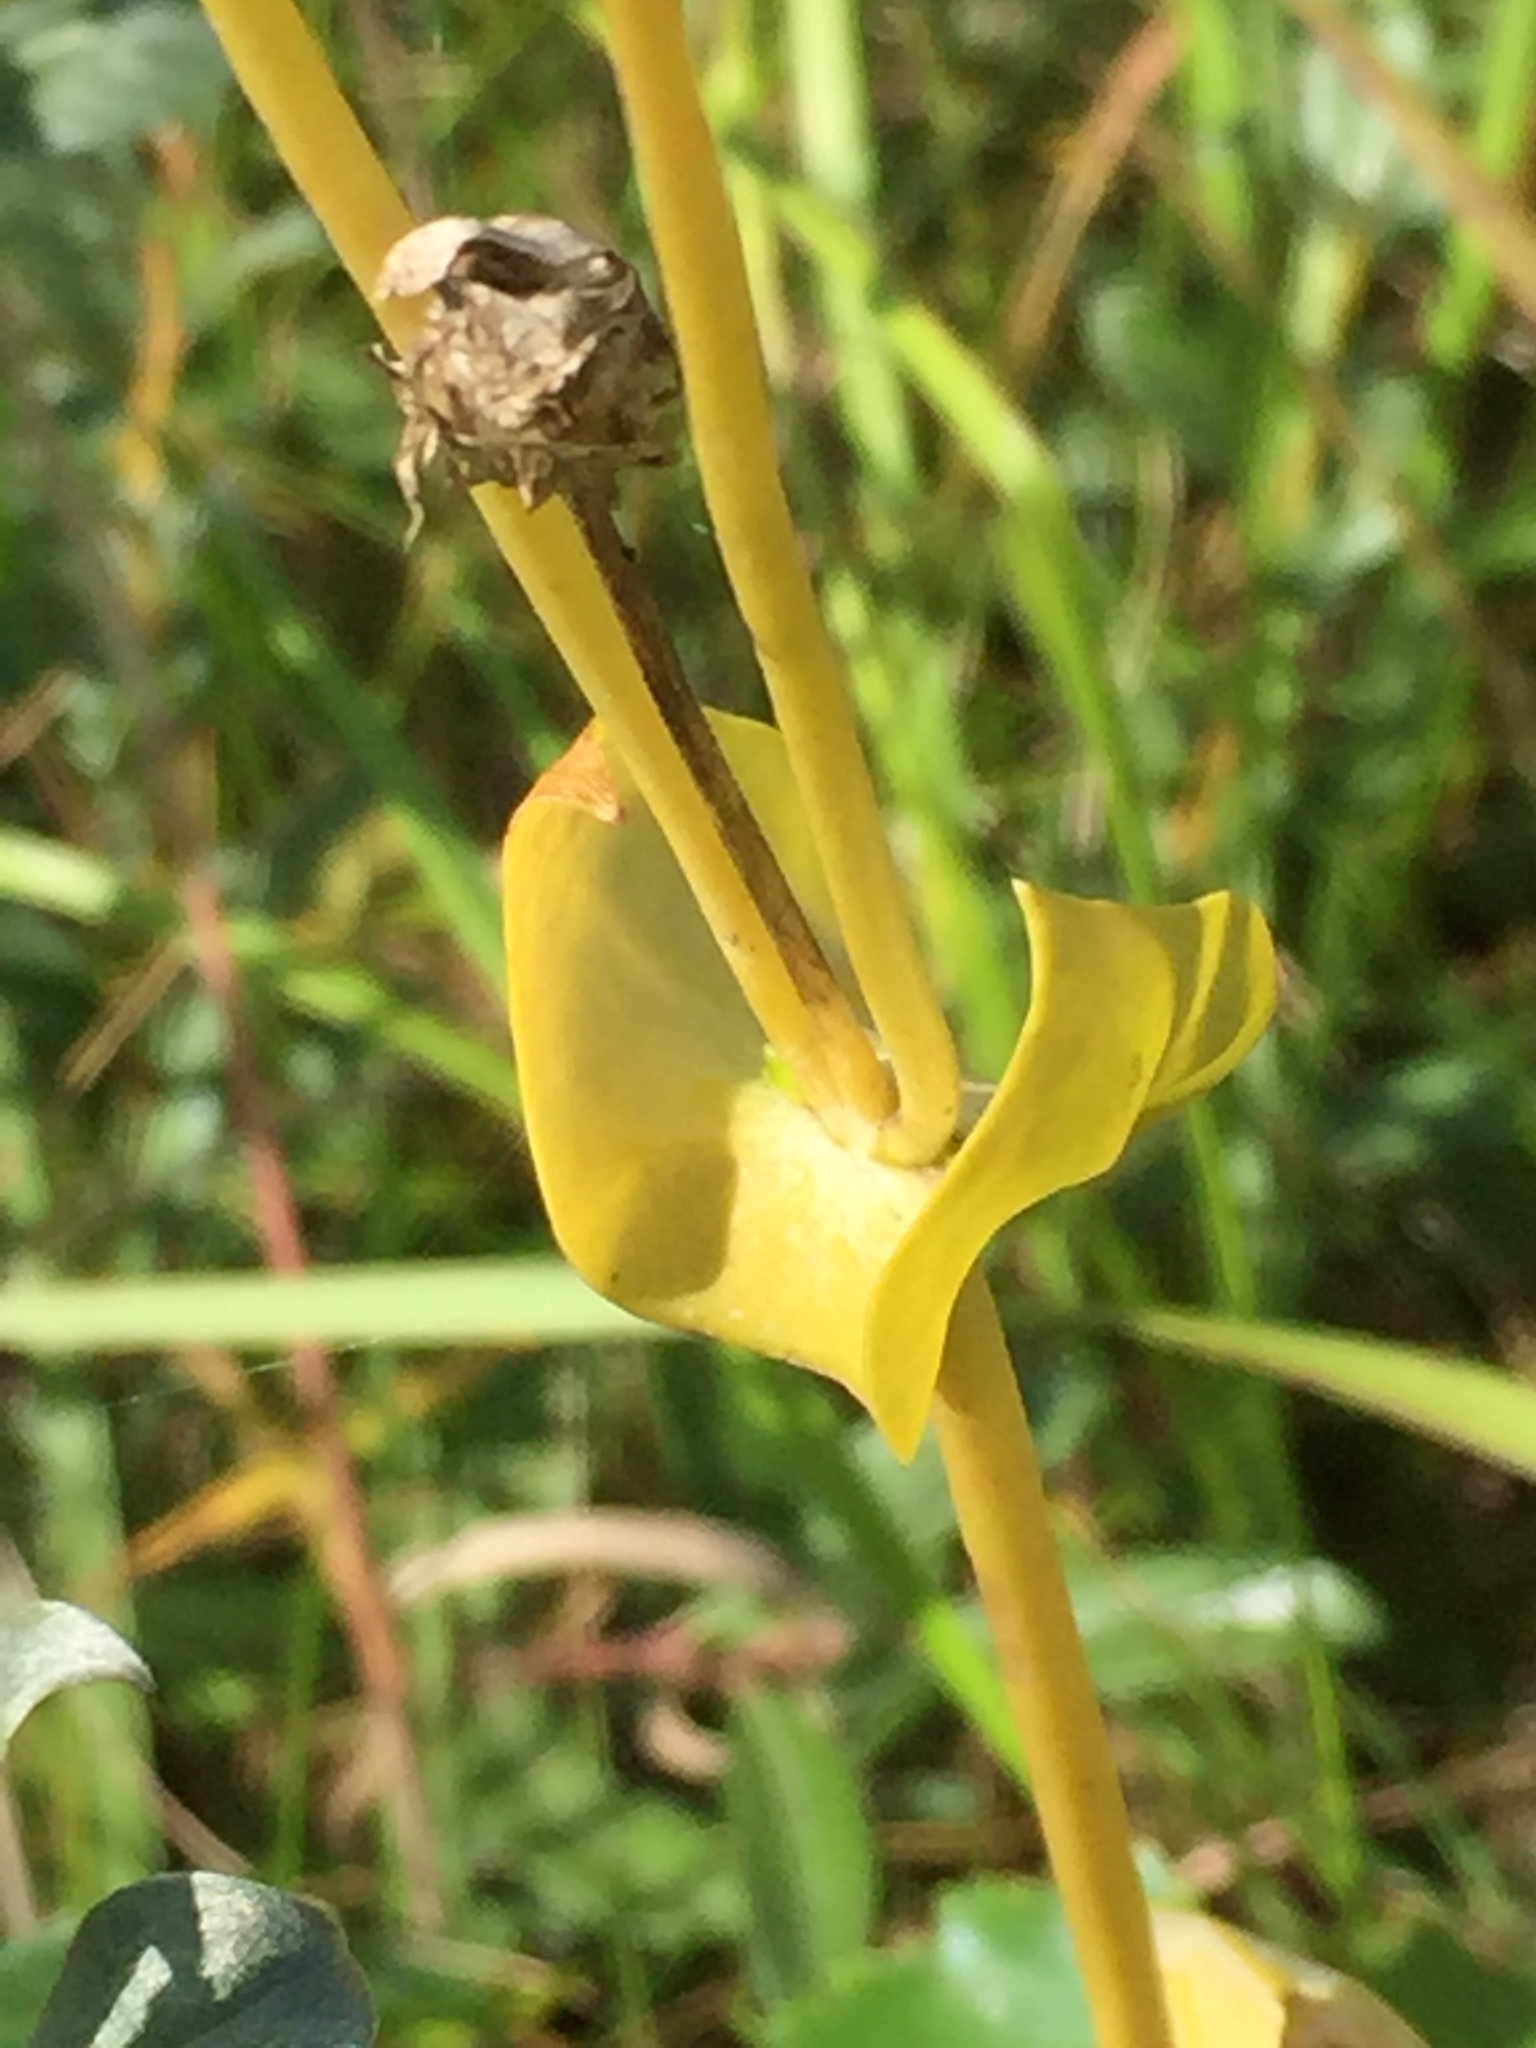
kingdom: Plantae
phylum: Tracheophyta
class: Magnoliopsida
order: Gentianales
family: Gentianaceae
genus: Blackstonia
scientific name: Blackstonia perfoliata
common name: Yellow-wort
